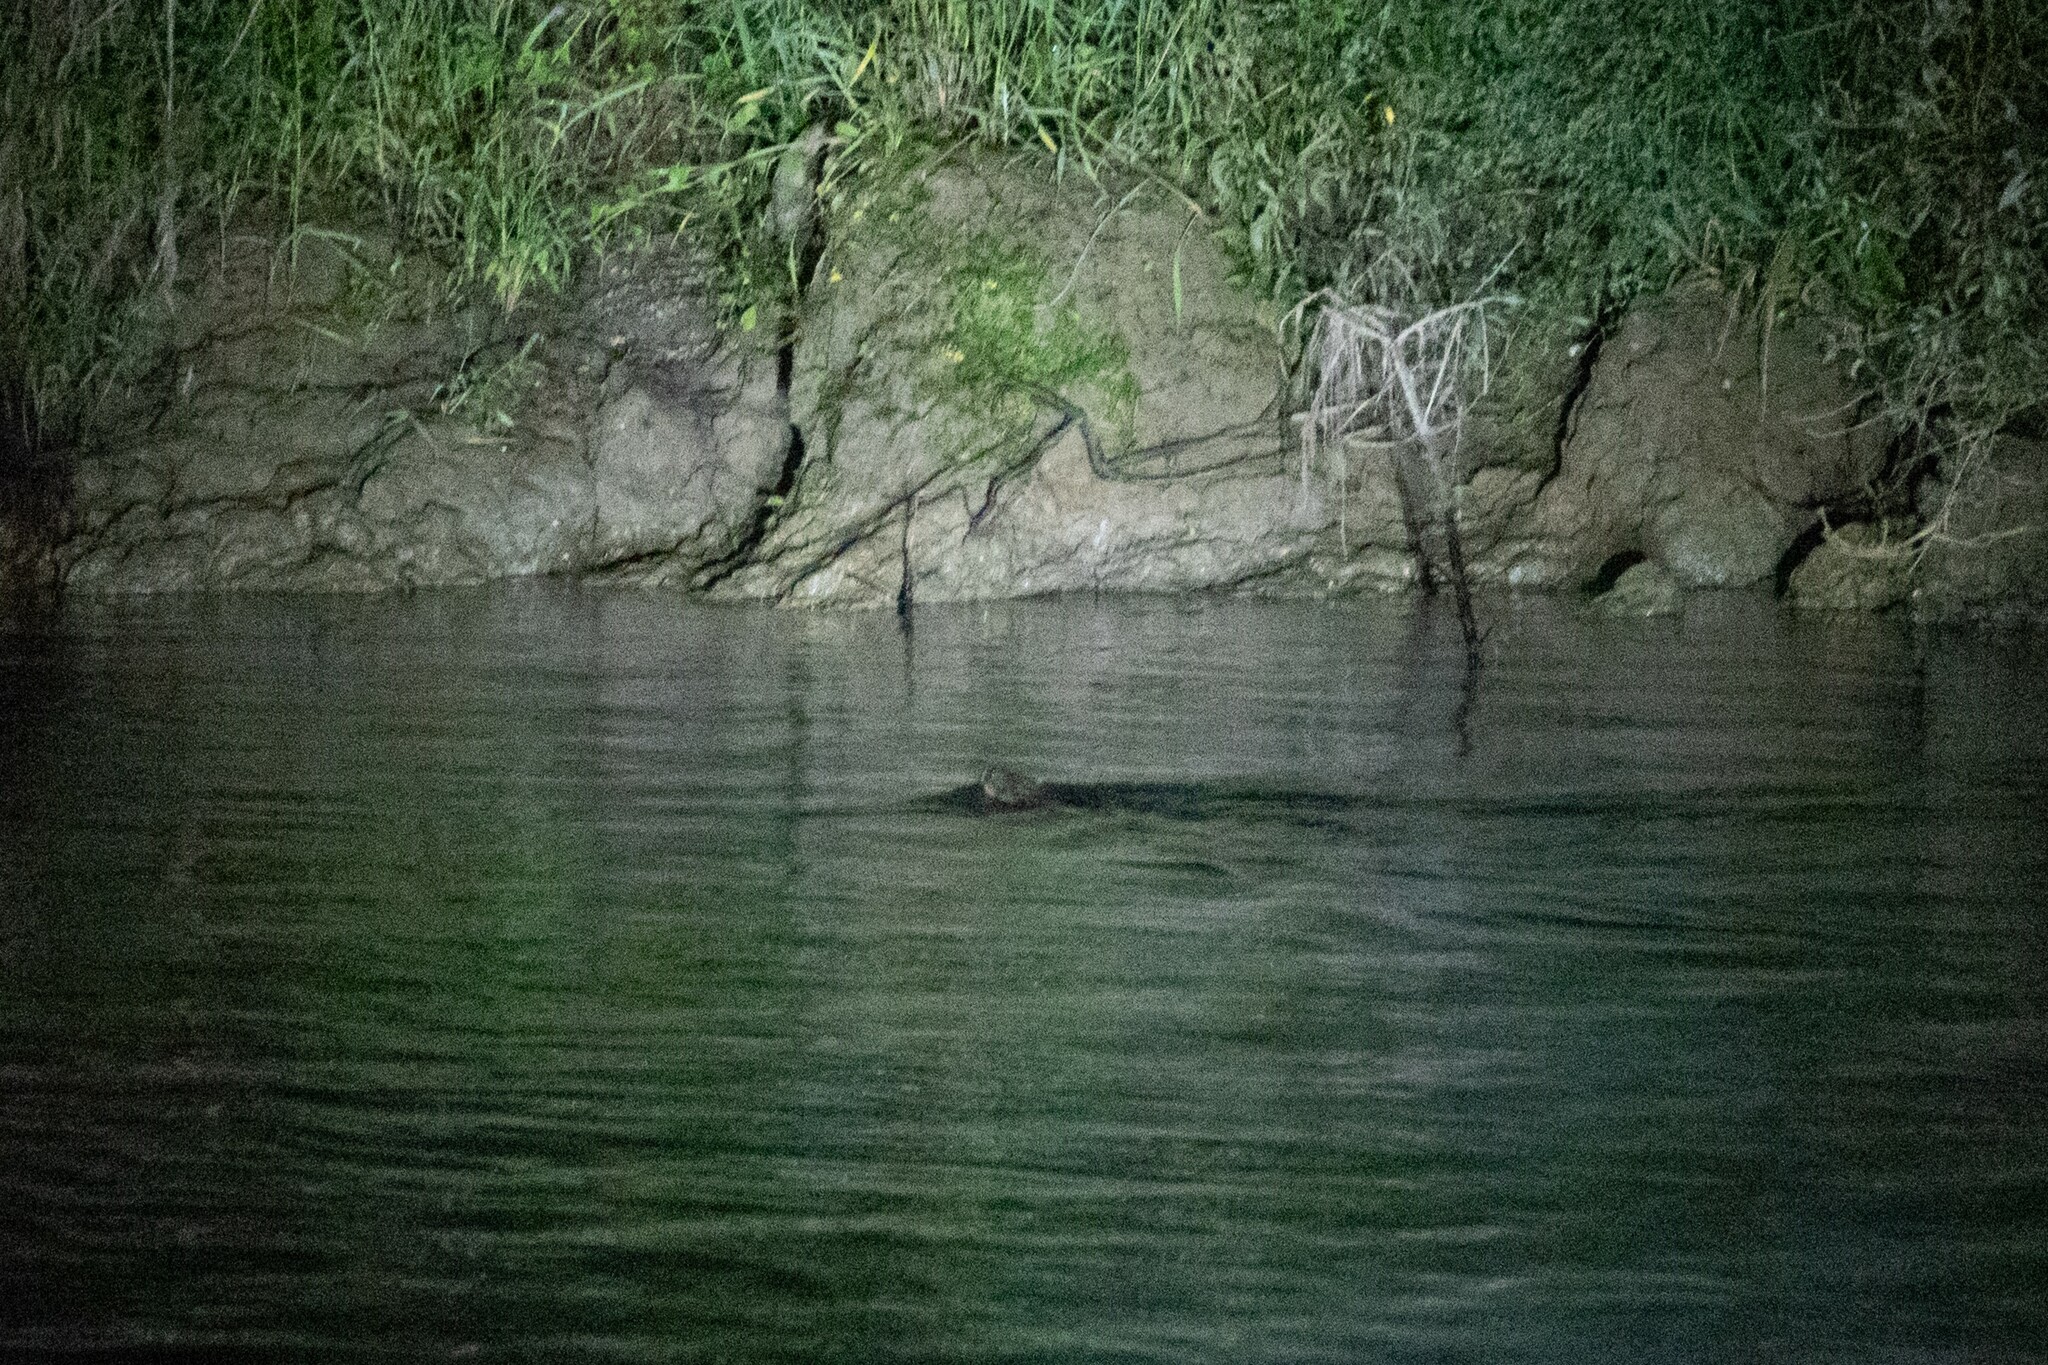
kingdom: Animalia
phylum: Chordata
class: Mammalia
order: Rodentia
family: Cricetidae
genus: Ondatra
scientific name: Ondatra zibethicus
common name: Muskrat
